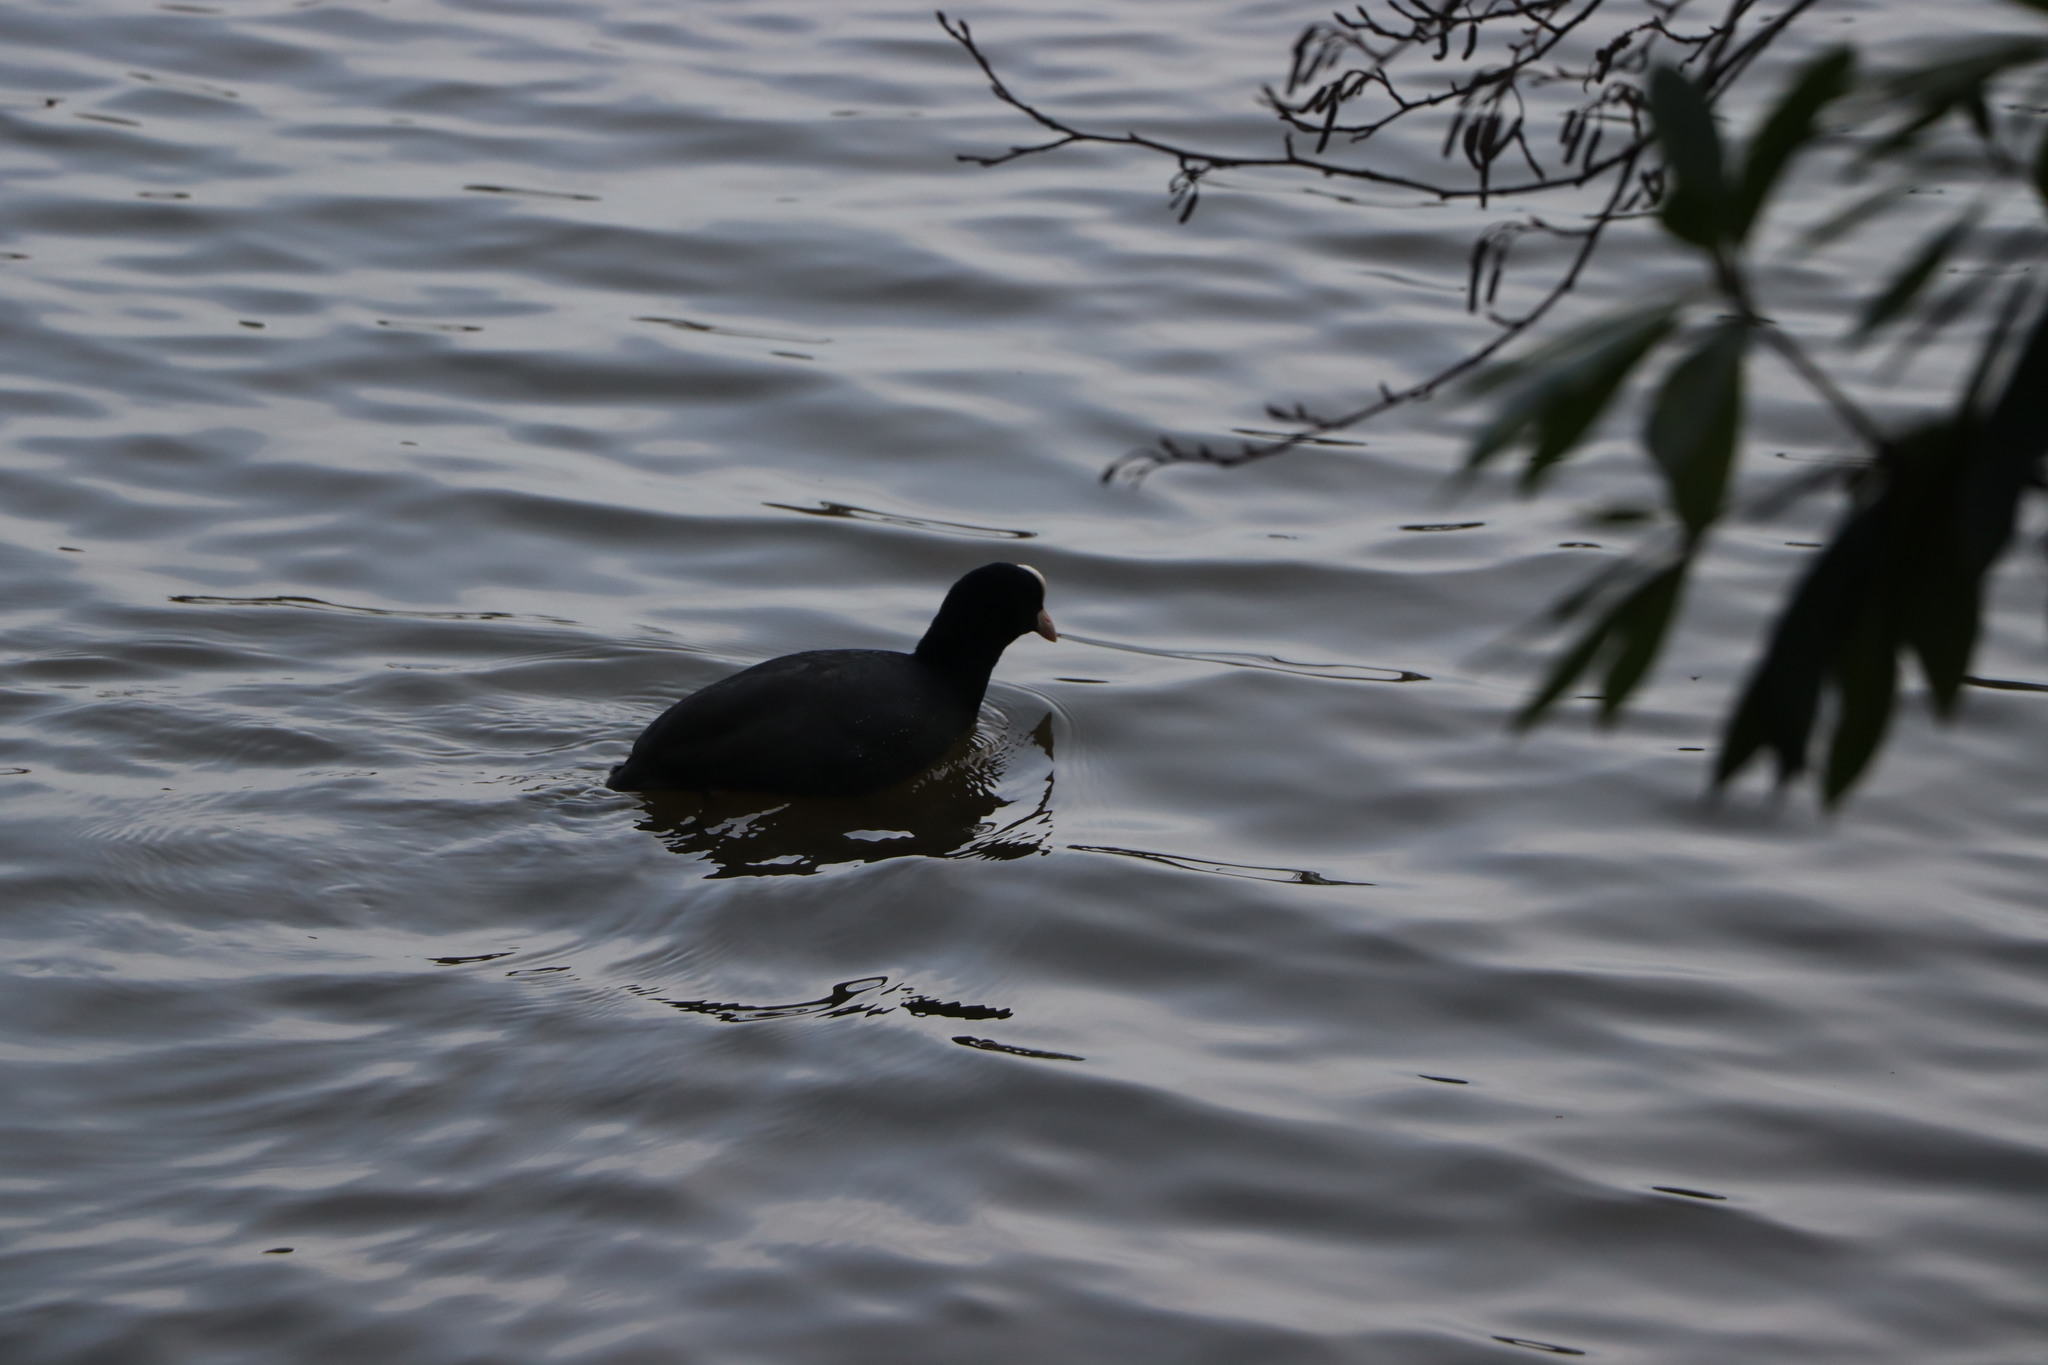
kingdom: Animalia
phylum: Chordata
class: Aves
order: Gruiformes
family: Rallidae
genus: Fulica
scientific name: Fulica atra
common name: Eurasian coot
